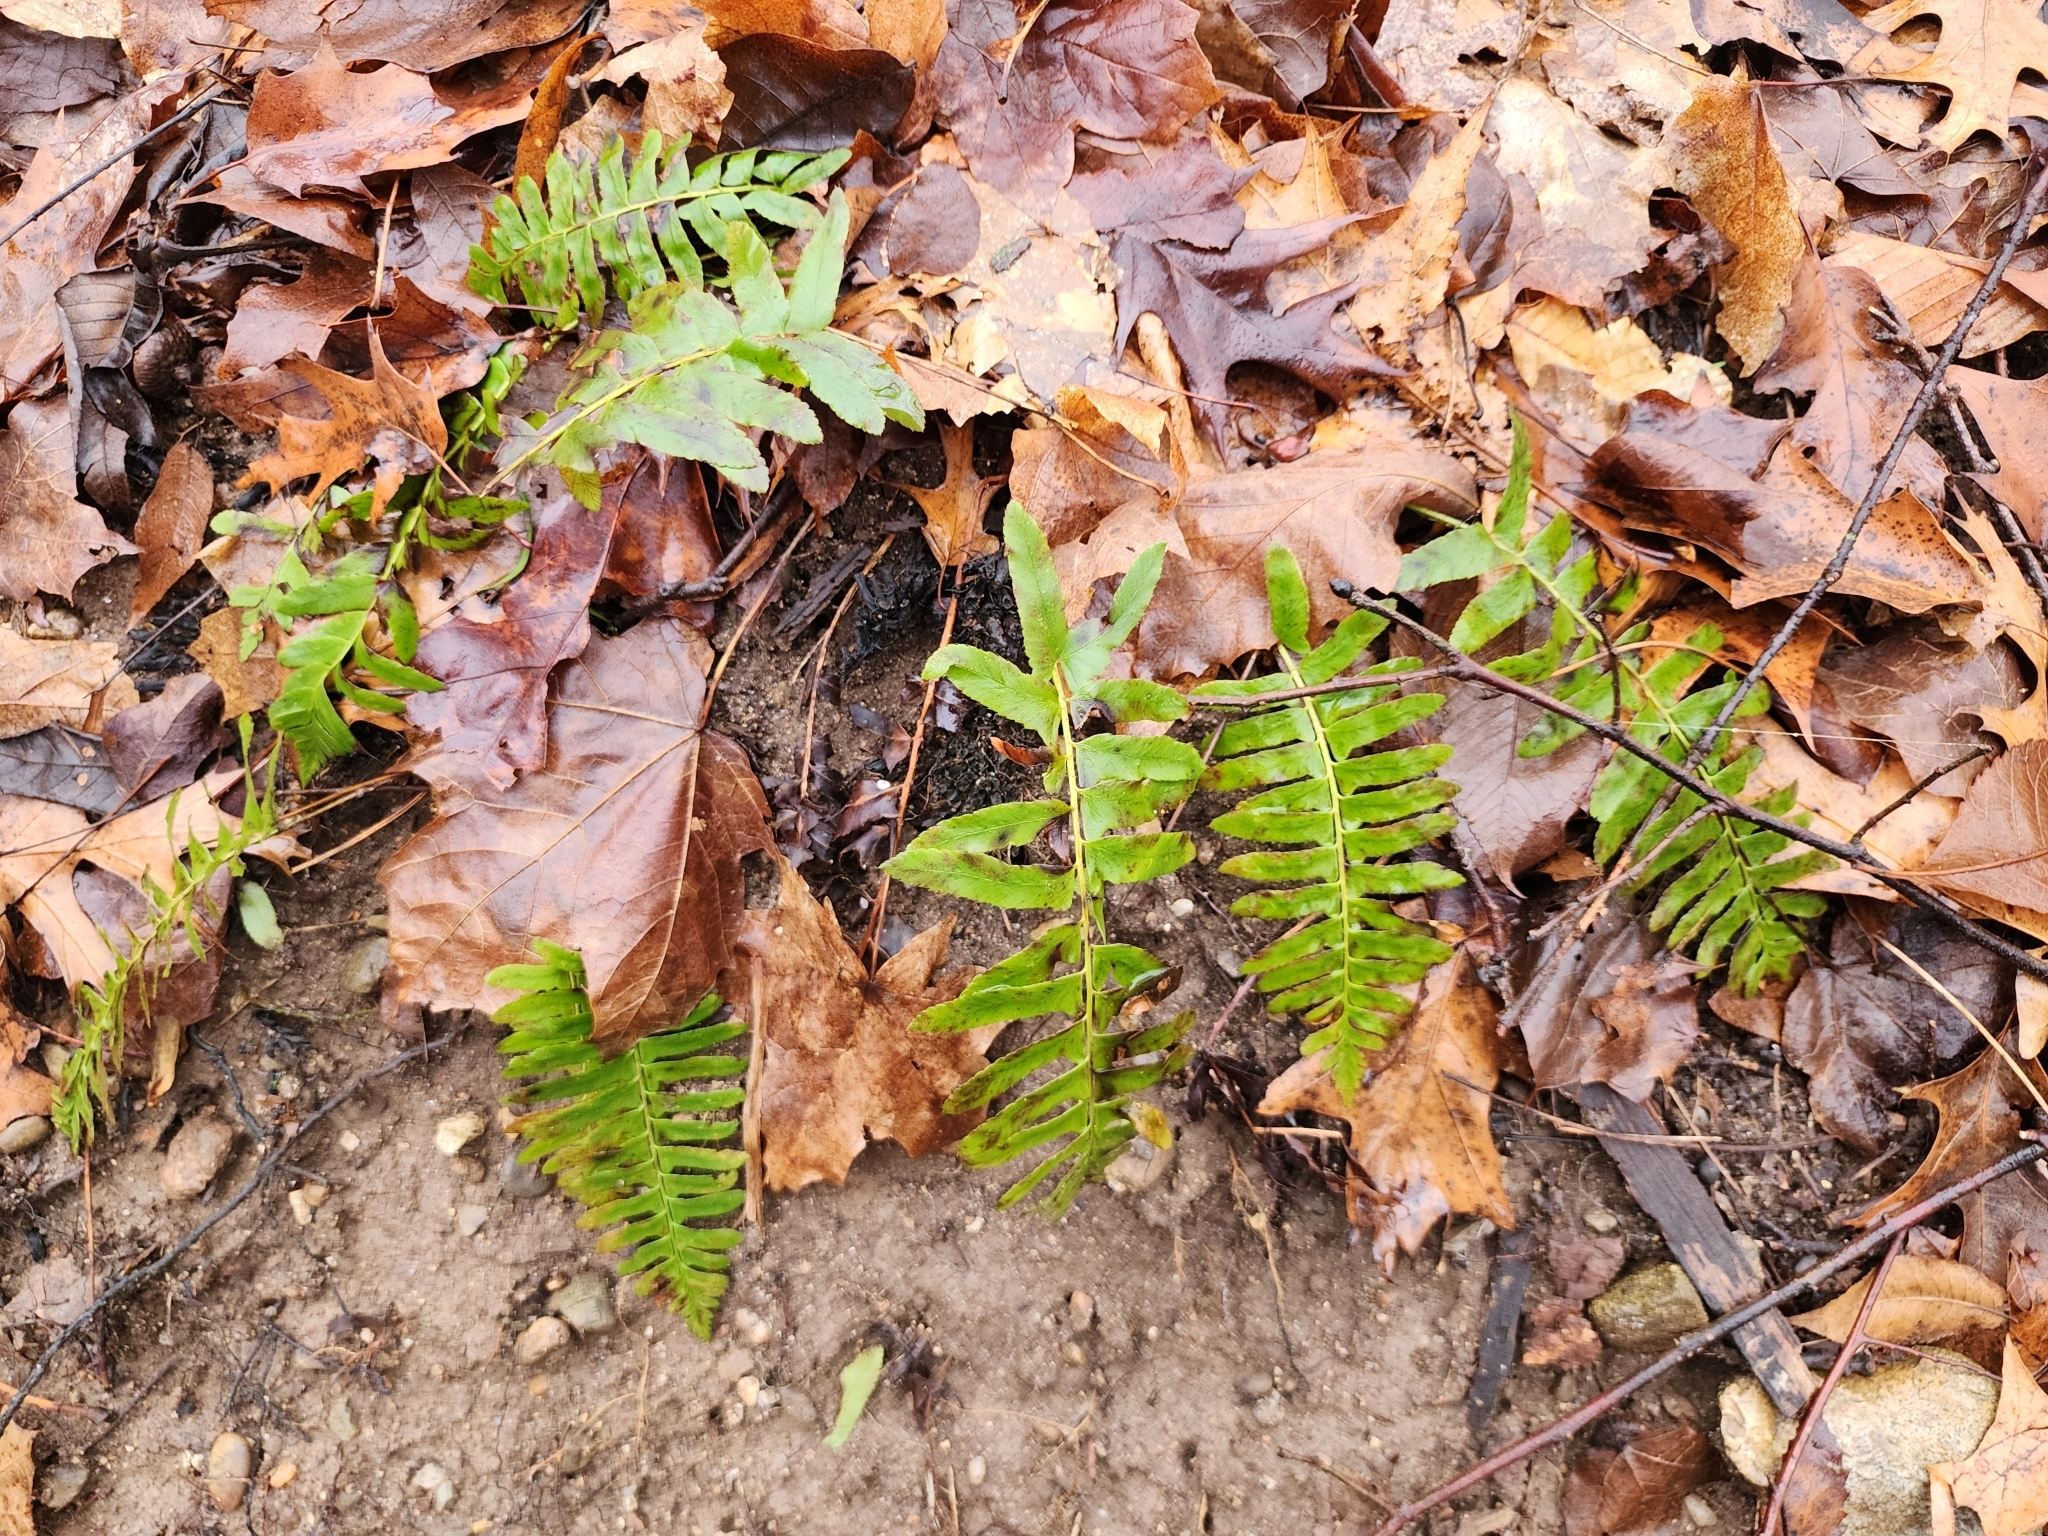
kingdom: Plantae
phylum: Tracheophyta
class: Polypodiopsida
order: Polypodiales
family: Dryopteridaceae
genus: Polystichum
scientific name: Polystichum acrostichoides
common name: Christmas fern
